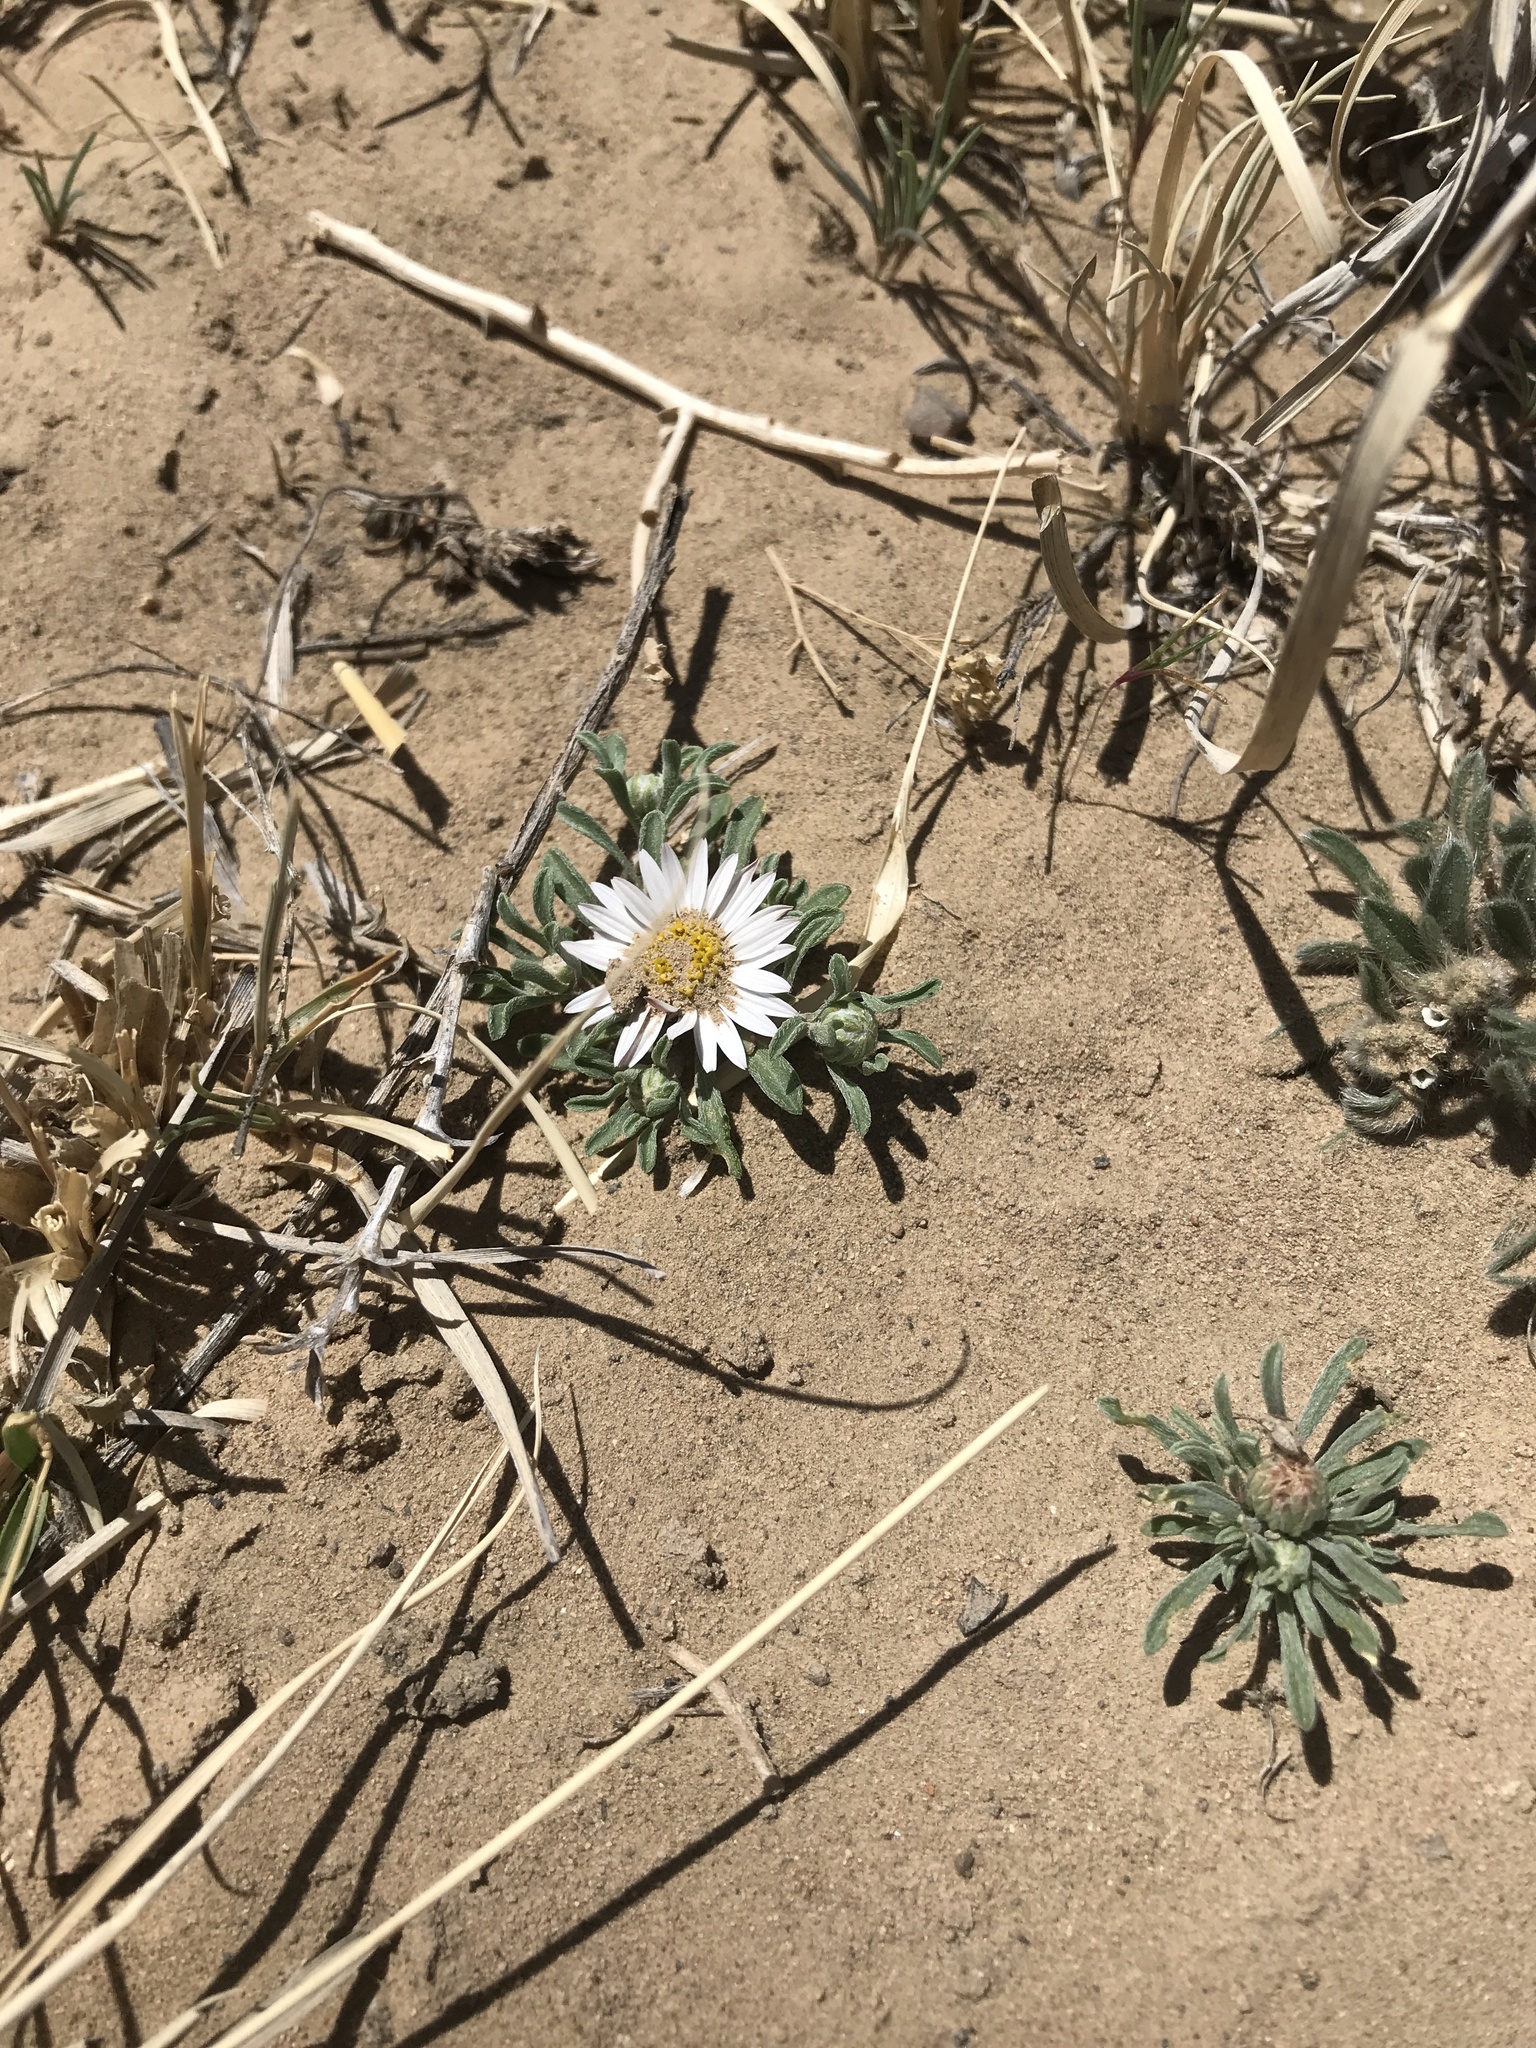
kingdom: Plantae
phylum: Tracheophyta
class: Magnoliopsida
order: Asterales
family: Asteraceae
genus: Townsendia
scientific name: Townsendia exscapa
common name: Dwarf townsendia
